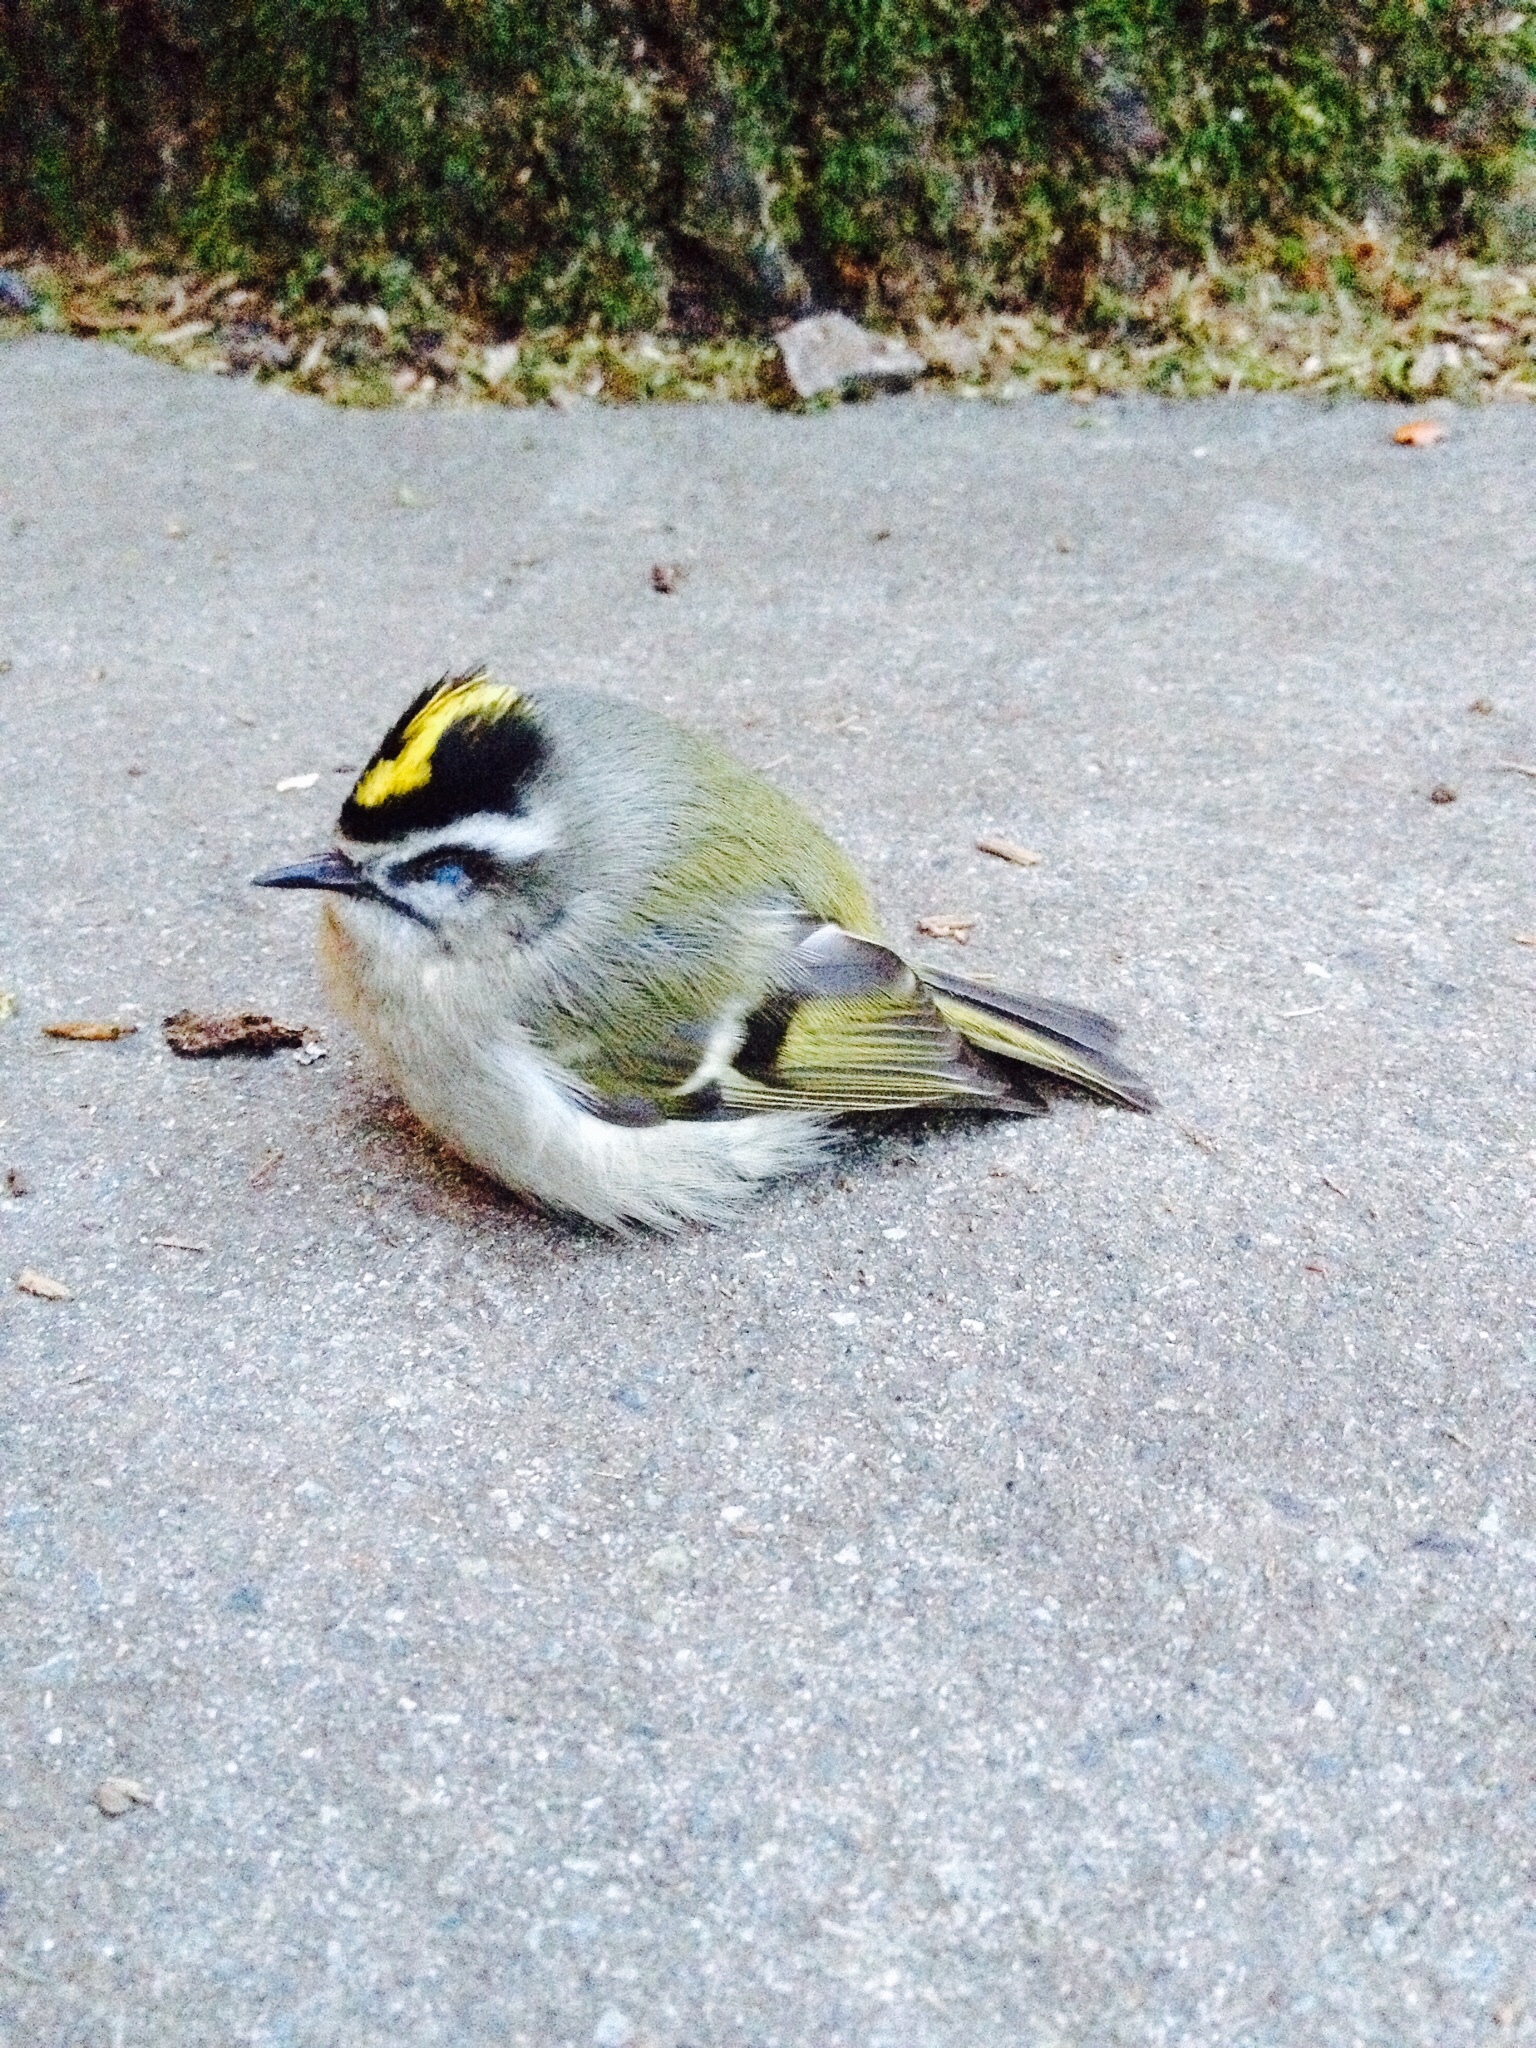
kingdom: Animalia
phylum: Chordata
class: Aves
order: Passeriformes
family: Regulidae
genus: Regulus
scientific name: Regulus satrapa
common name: Golden-crowned kinglet
